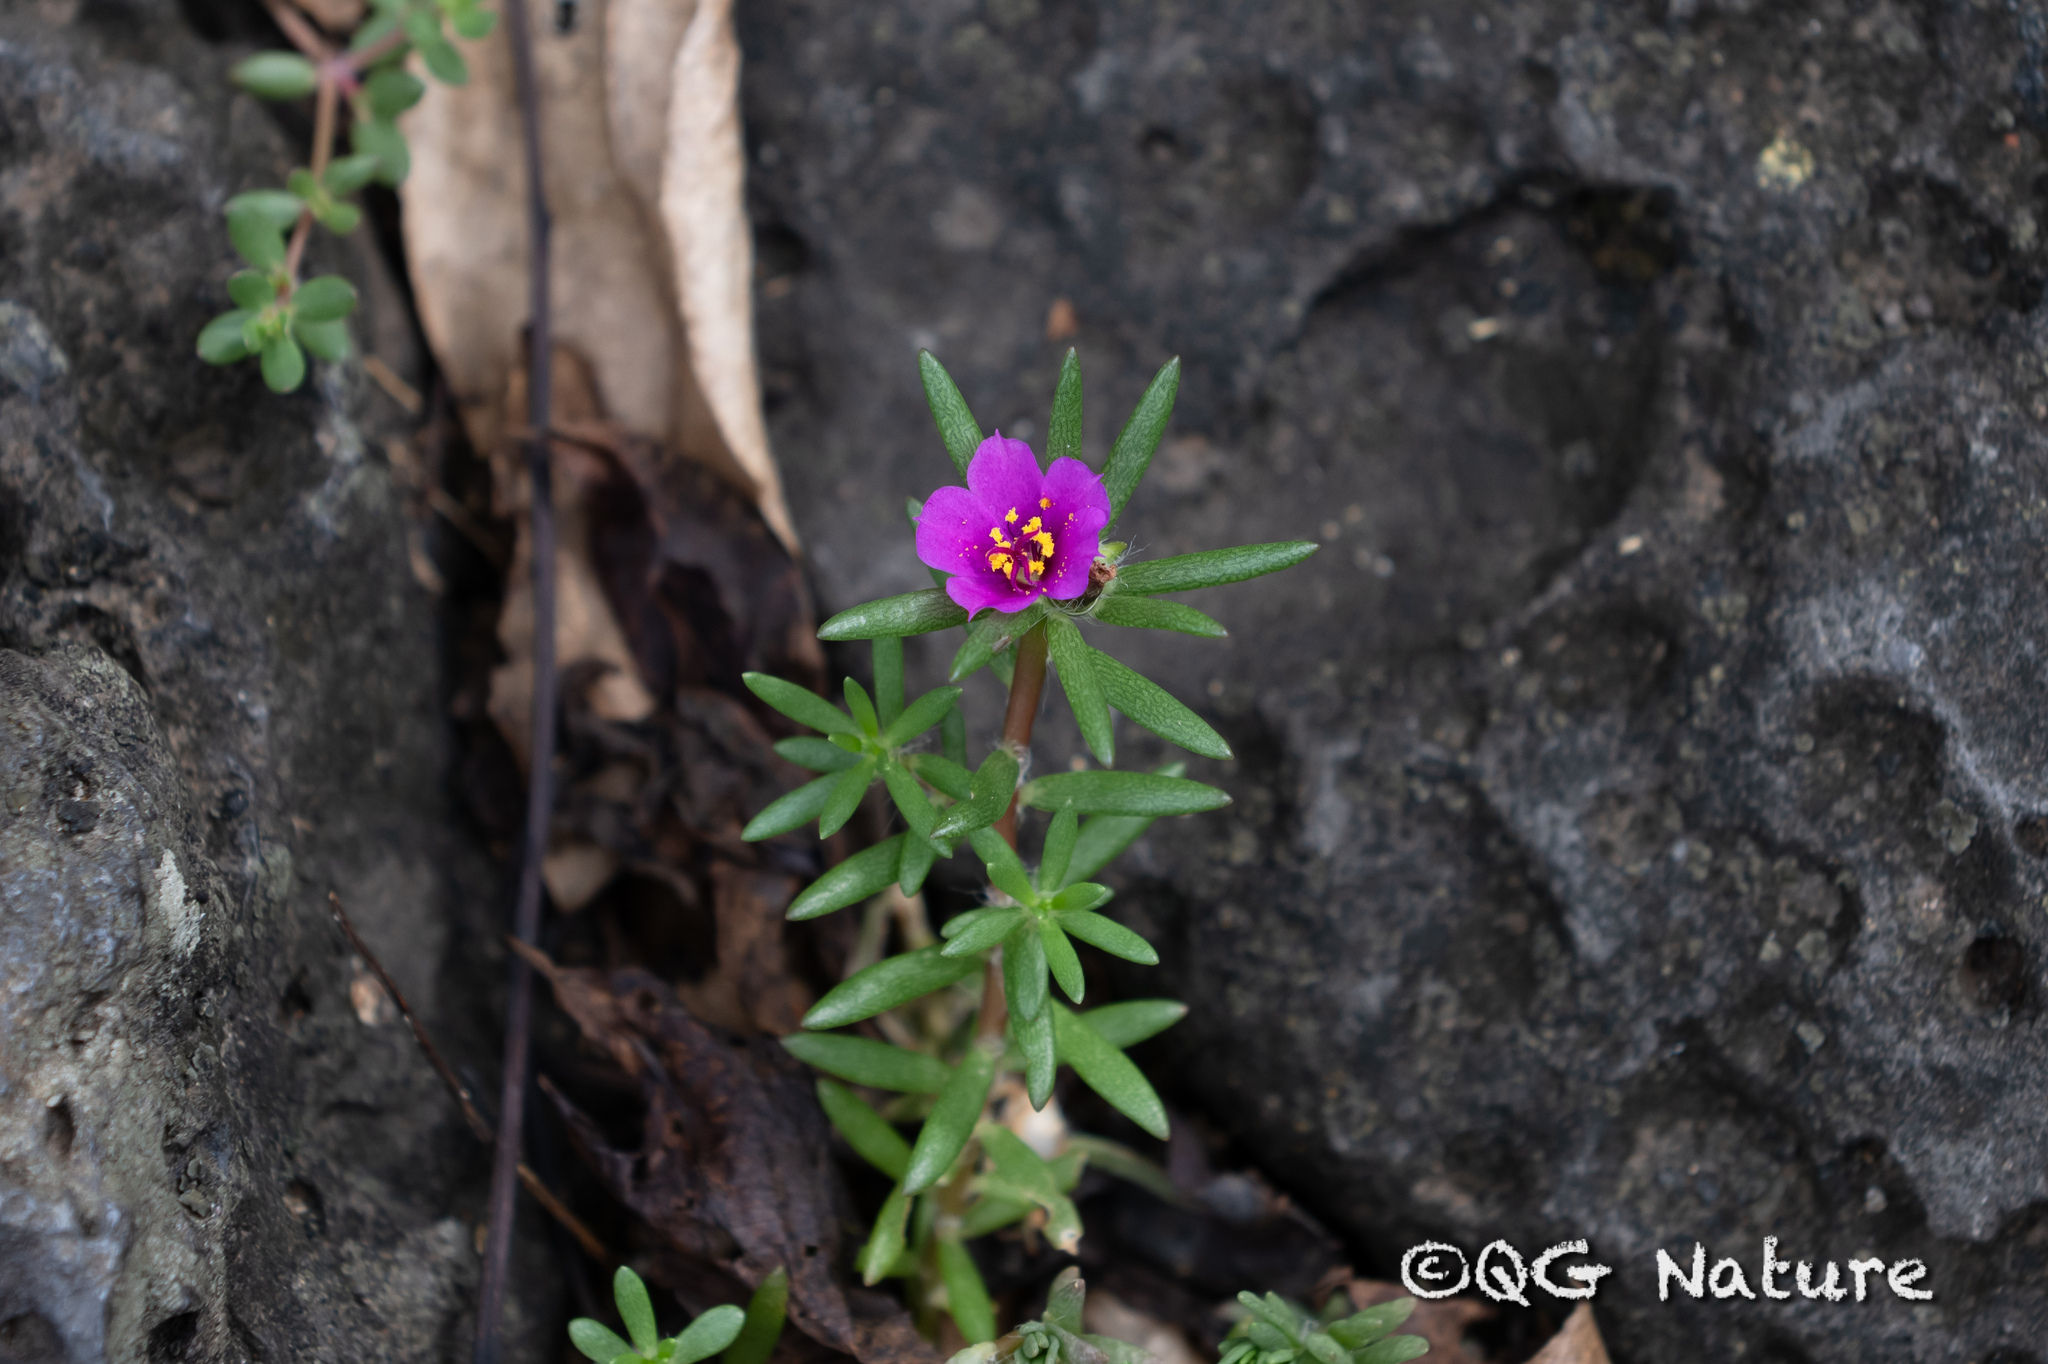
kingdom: Plantae
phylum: Tracheophyta
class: Magnoliopsida
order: Caryophyllales
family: Portulacaceae
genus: Portulaca
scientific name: Portulaca pilosa
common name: Kiss me quick
